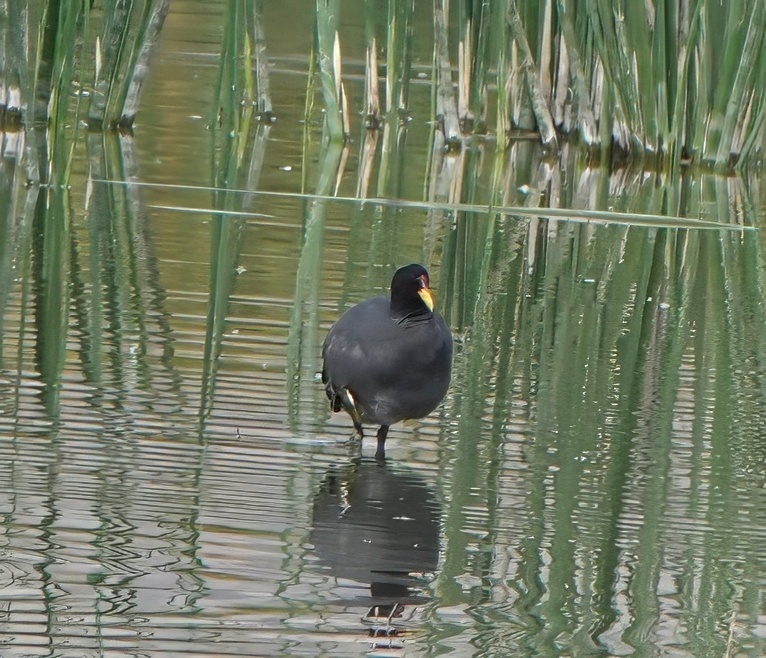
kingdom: Animalia
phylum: Chordata
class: Aves
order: Gruiformes
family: Rallidae
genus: Fulica
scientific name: Fulica rufifrons
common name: Red-fronted coot
